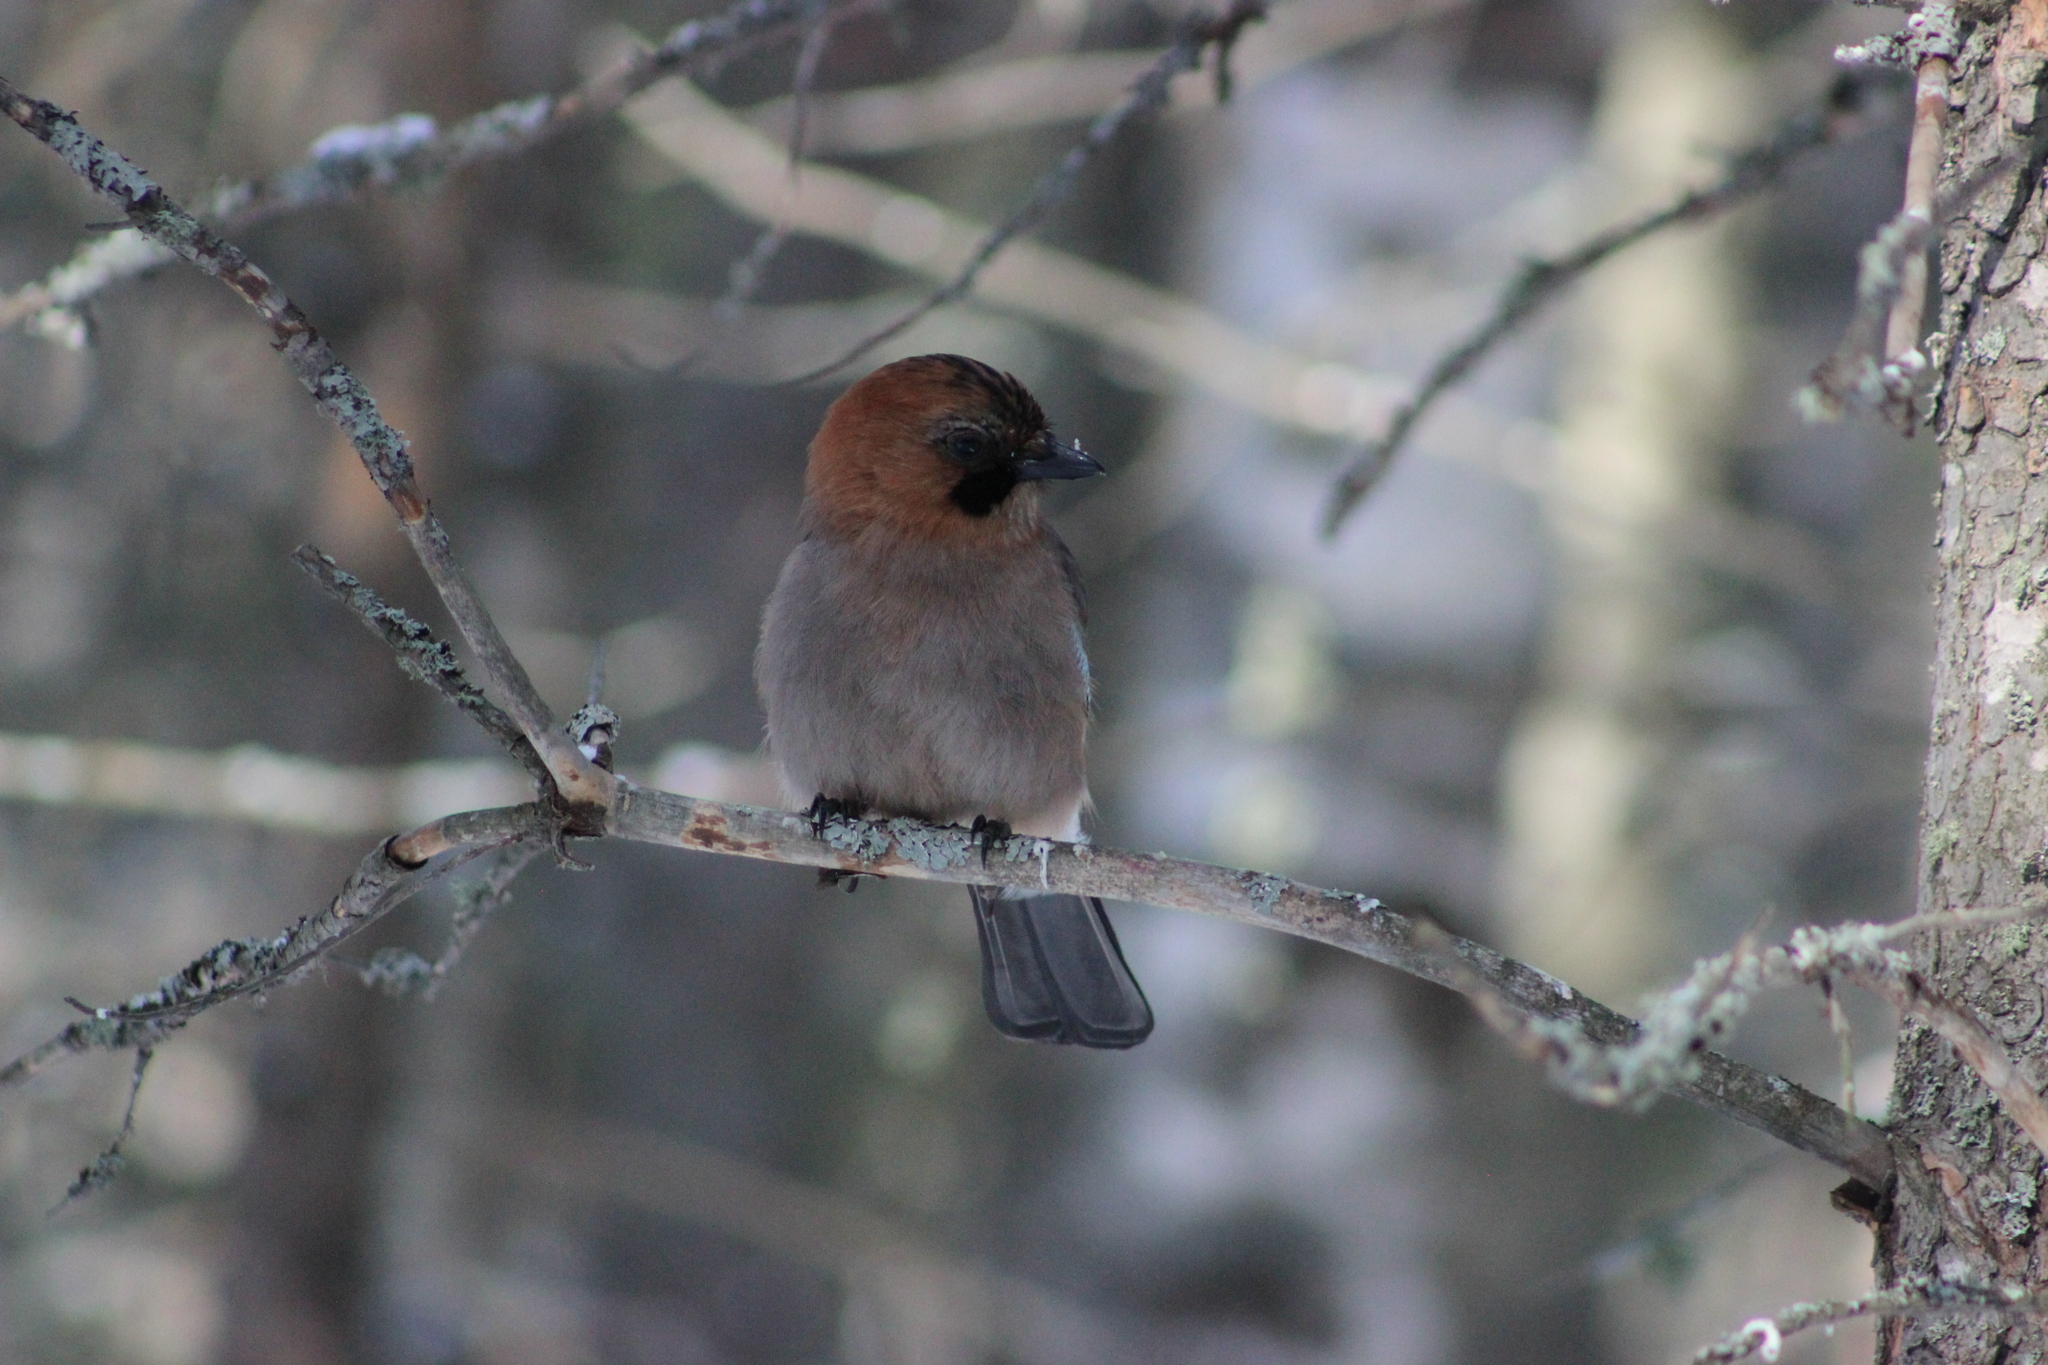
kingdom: Animalia
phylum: Chordata
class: Aves
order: Passeriformes
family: Corvidae
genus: Garrulus
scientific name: Garrulus glandarius
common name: Eurasian jay
